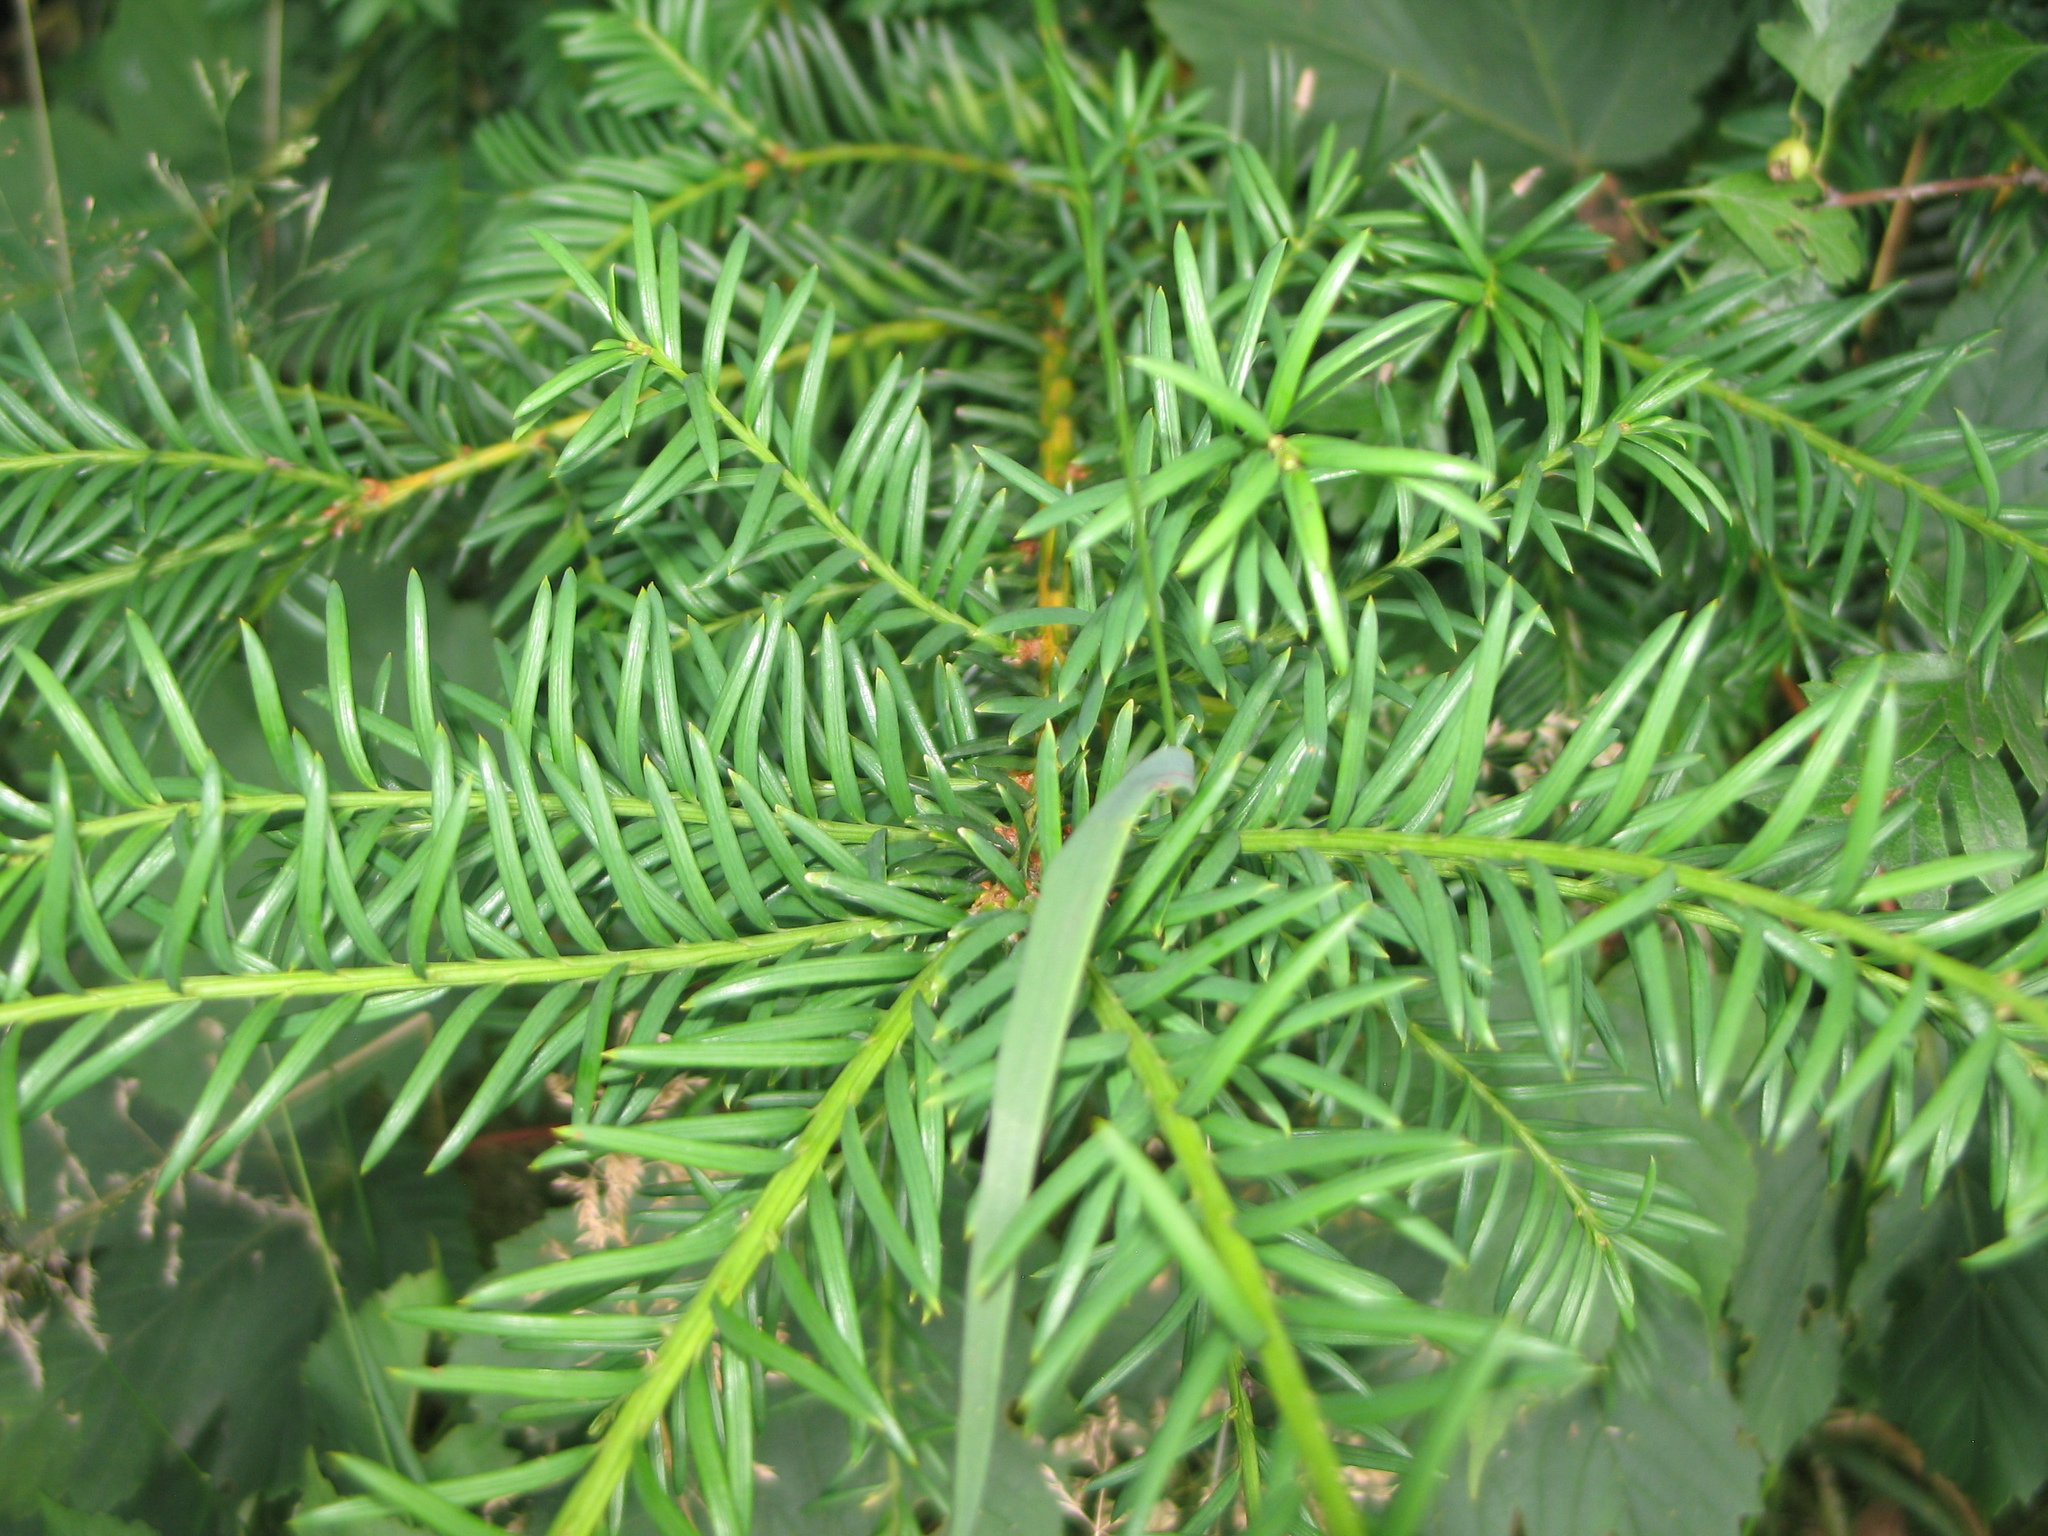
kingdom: Plantae
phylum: Tracheophyta
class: Pinopsida
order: Pinales
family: Taxaceae
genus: Taxus
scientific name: Taxus baccata
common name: Yew
